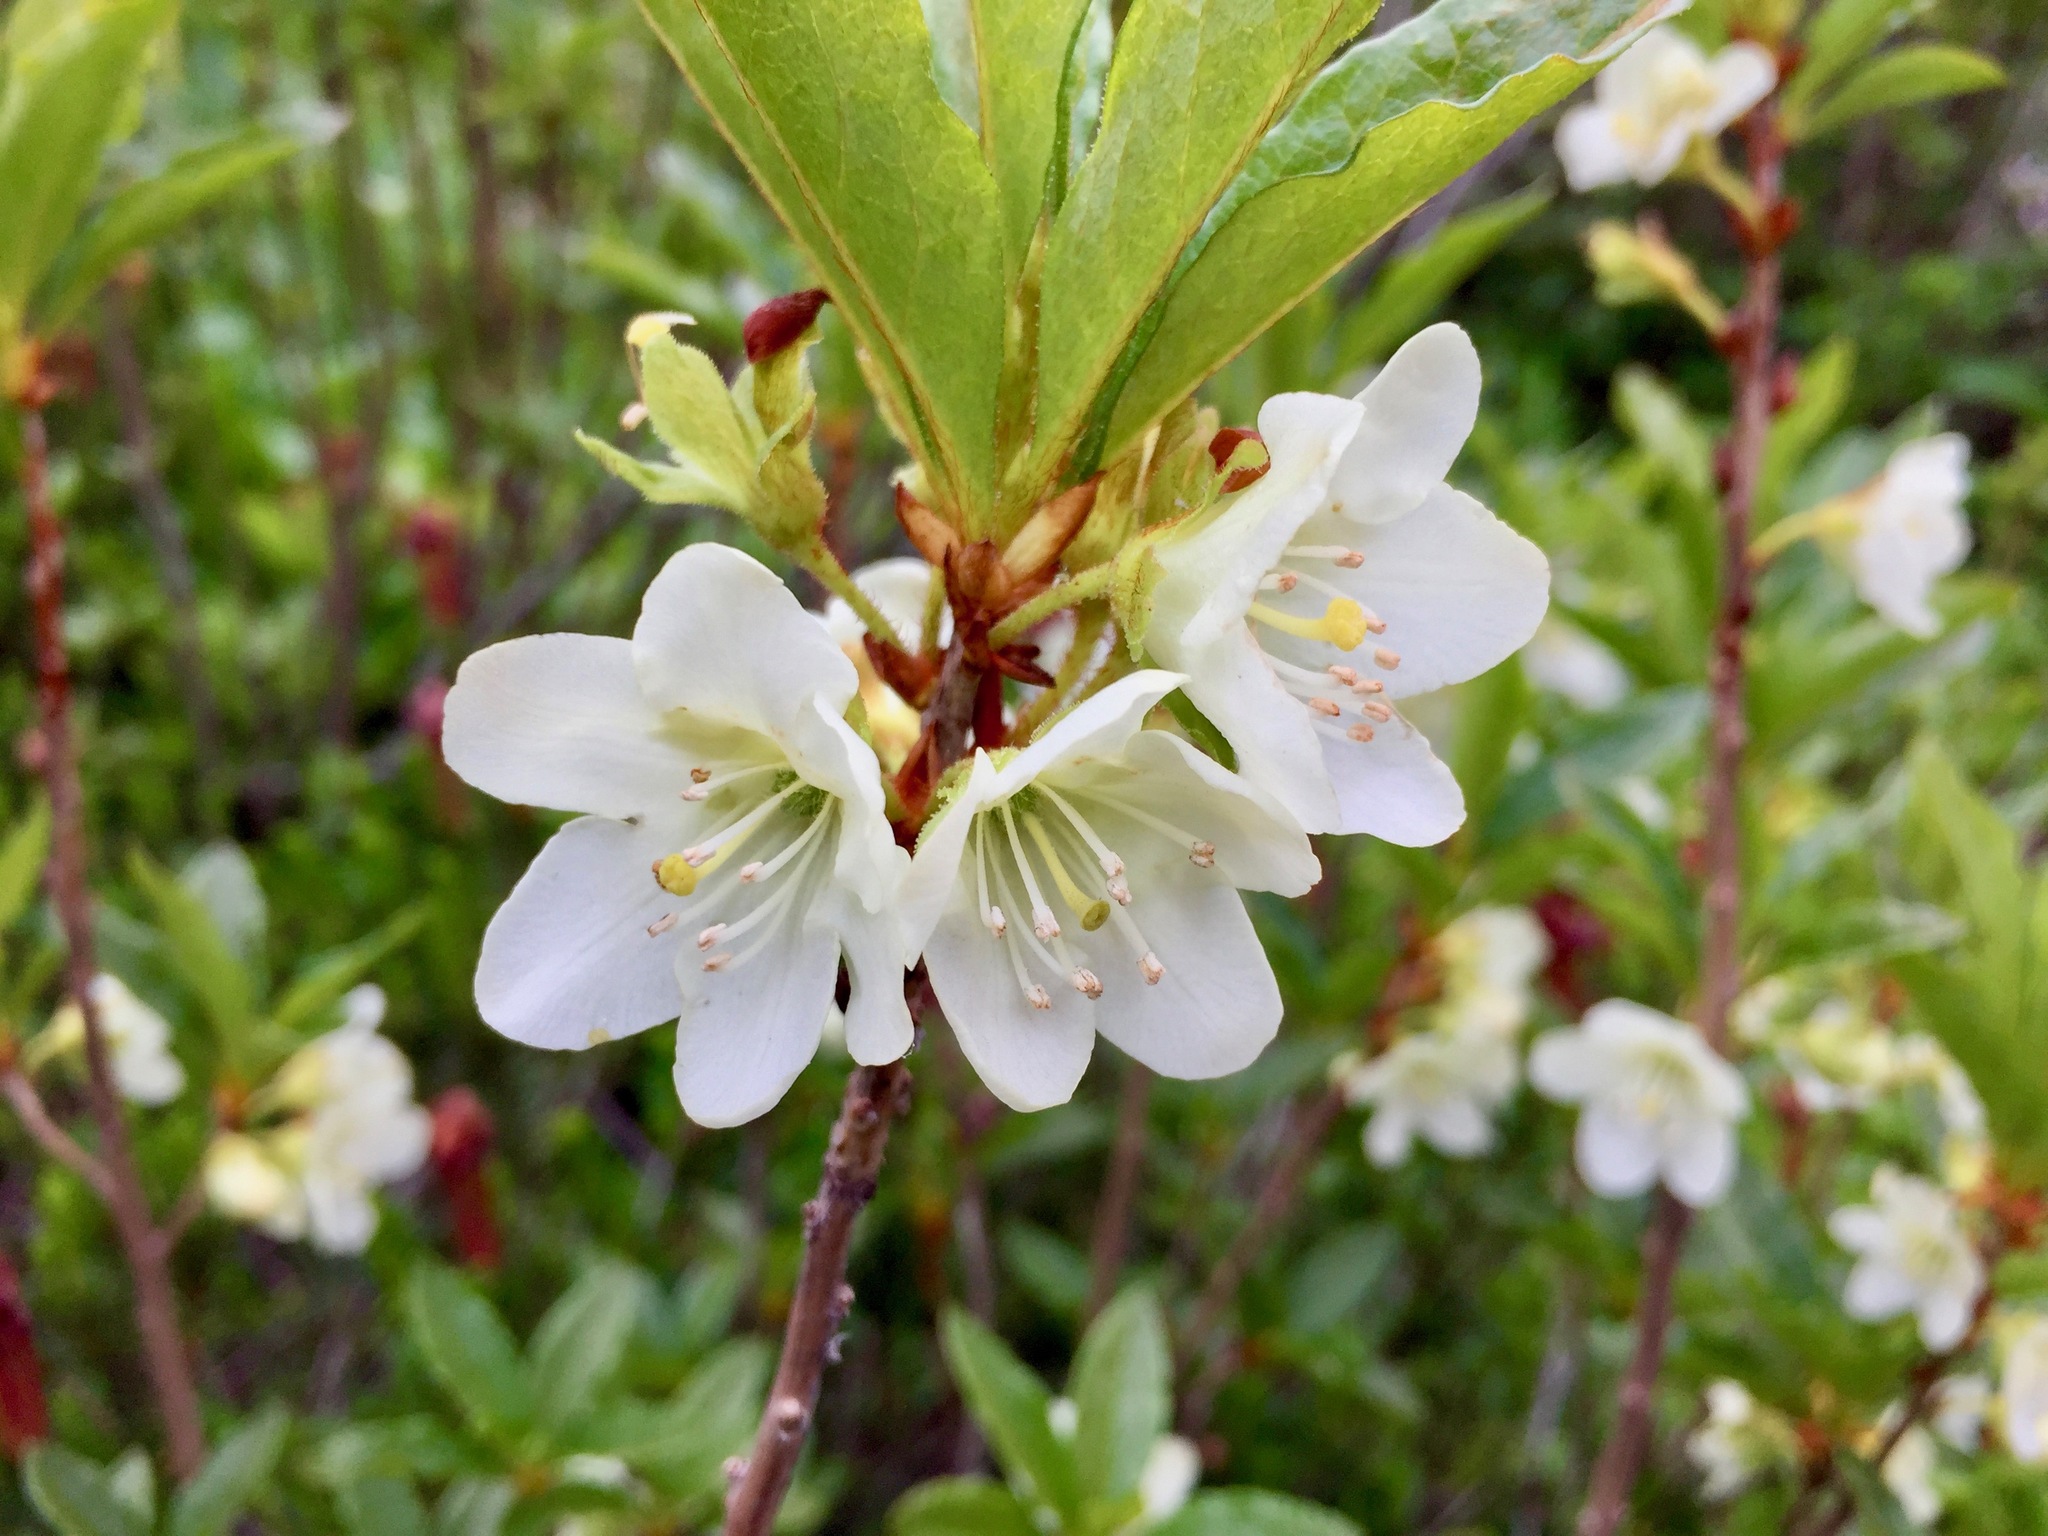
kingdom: Plantae
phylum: Tracheophyta
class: Magnoliopsida
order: Ericales
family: Ericaceae
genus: Rhododendron
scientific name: Rhododendron albiflorum
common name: White rhododendron
